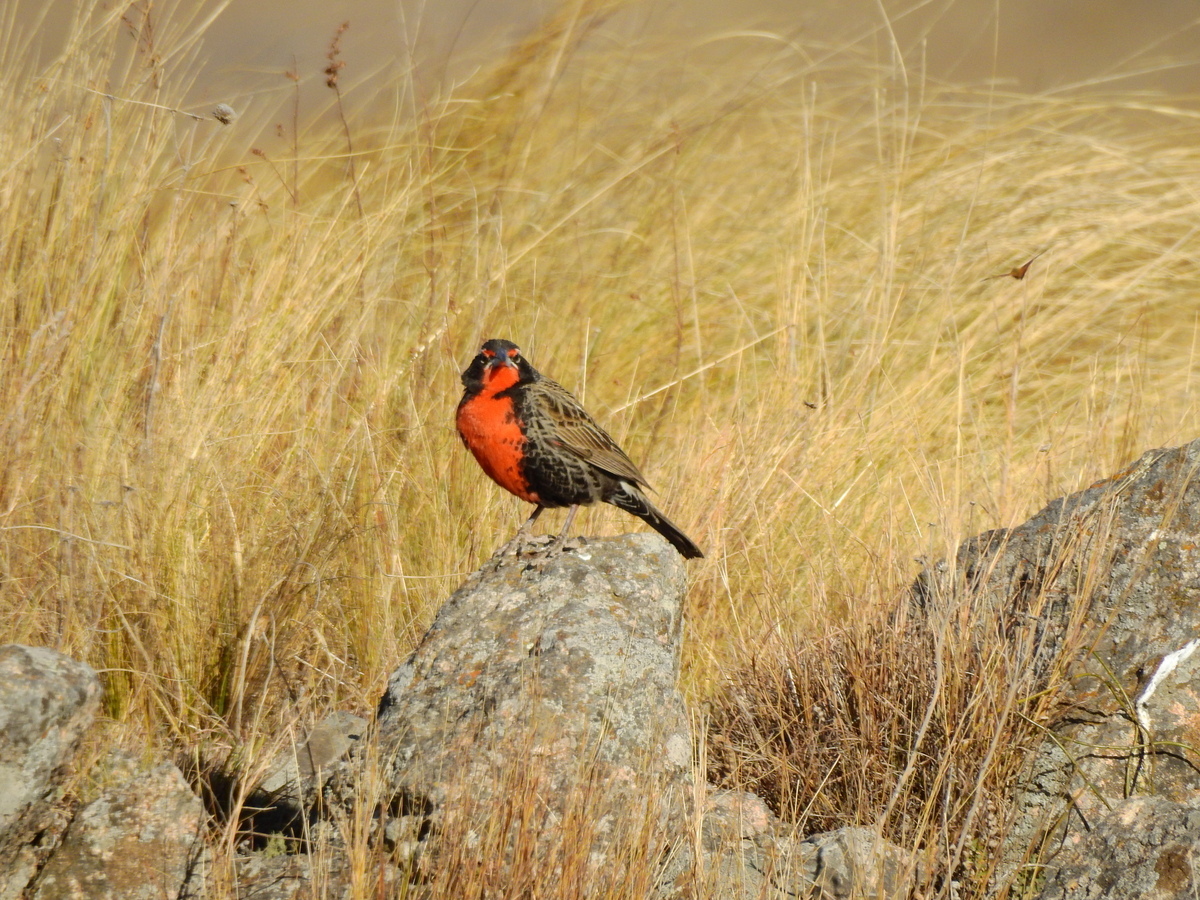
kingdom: Animalia
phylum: Chordata
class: Aves
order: Passeriformes
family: Icteridae
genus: Sturnella
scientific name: Sturnella loyca
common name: Long-tailed meadowlark
